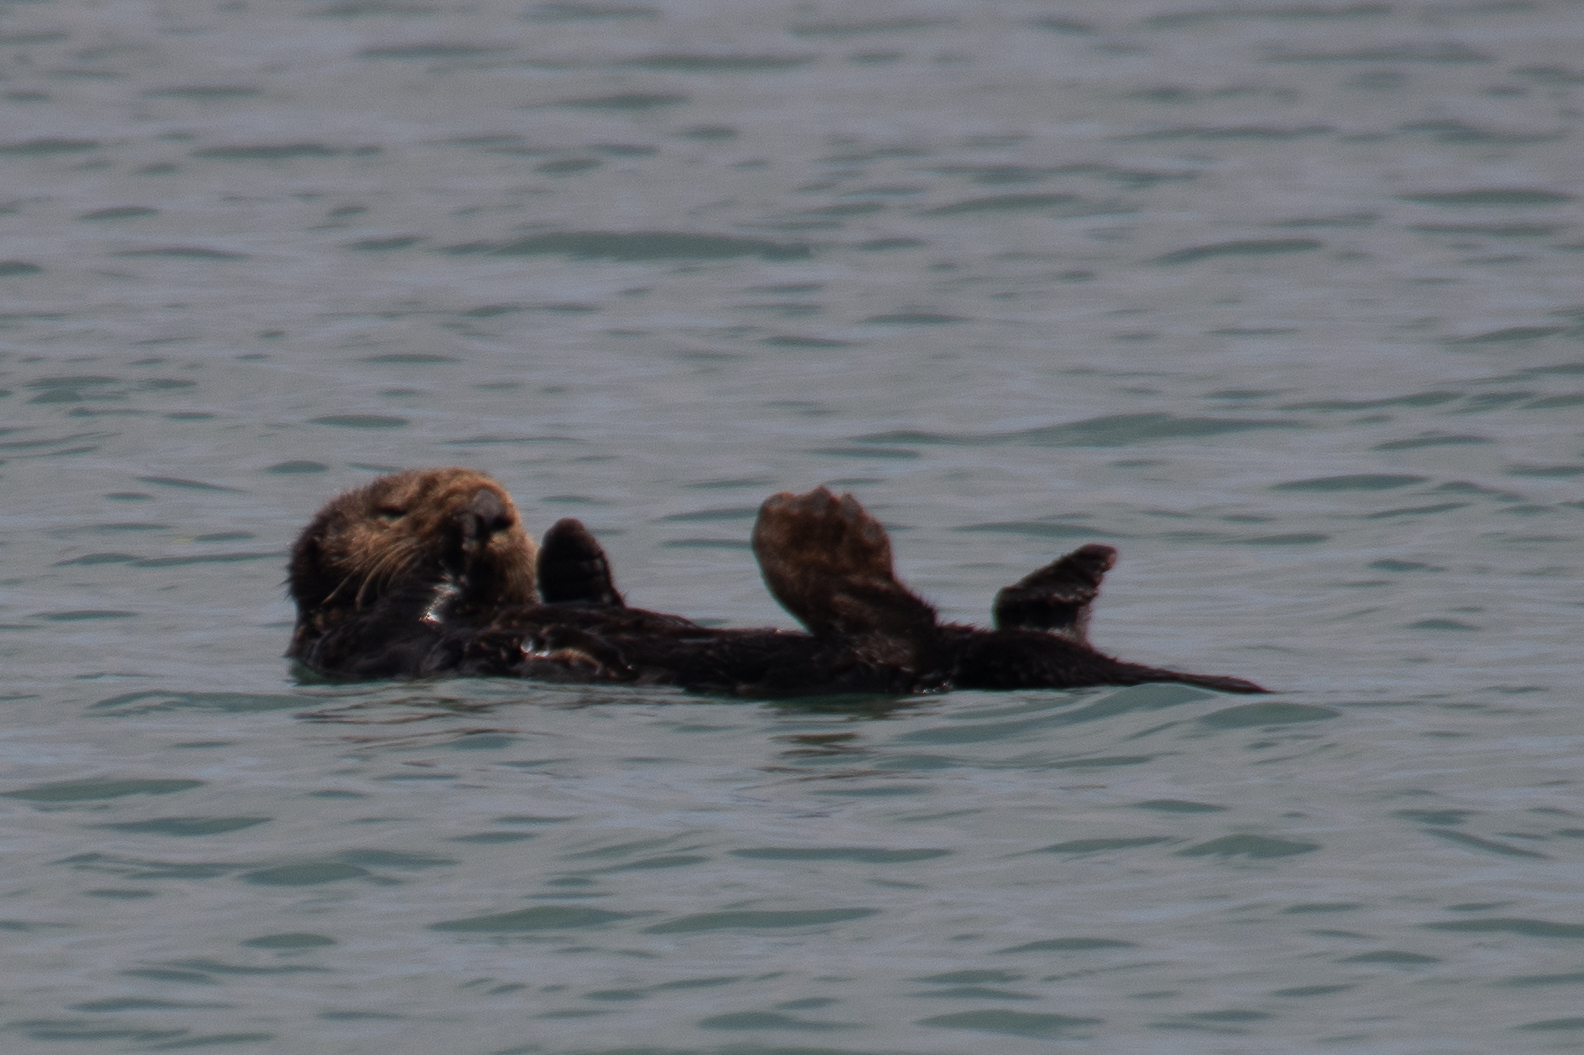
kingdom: Animalia
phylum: Chordata
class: Mammalia
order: Carnivora
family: Mustelidae
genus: Enhydra
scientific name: Enhydra lutris
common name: Sea otter
